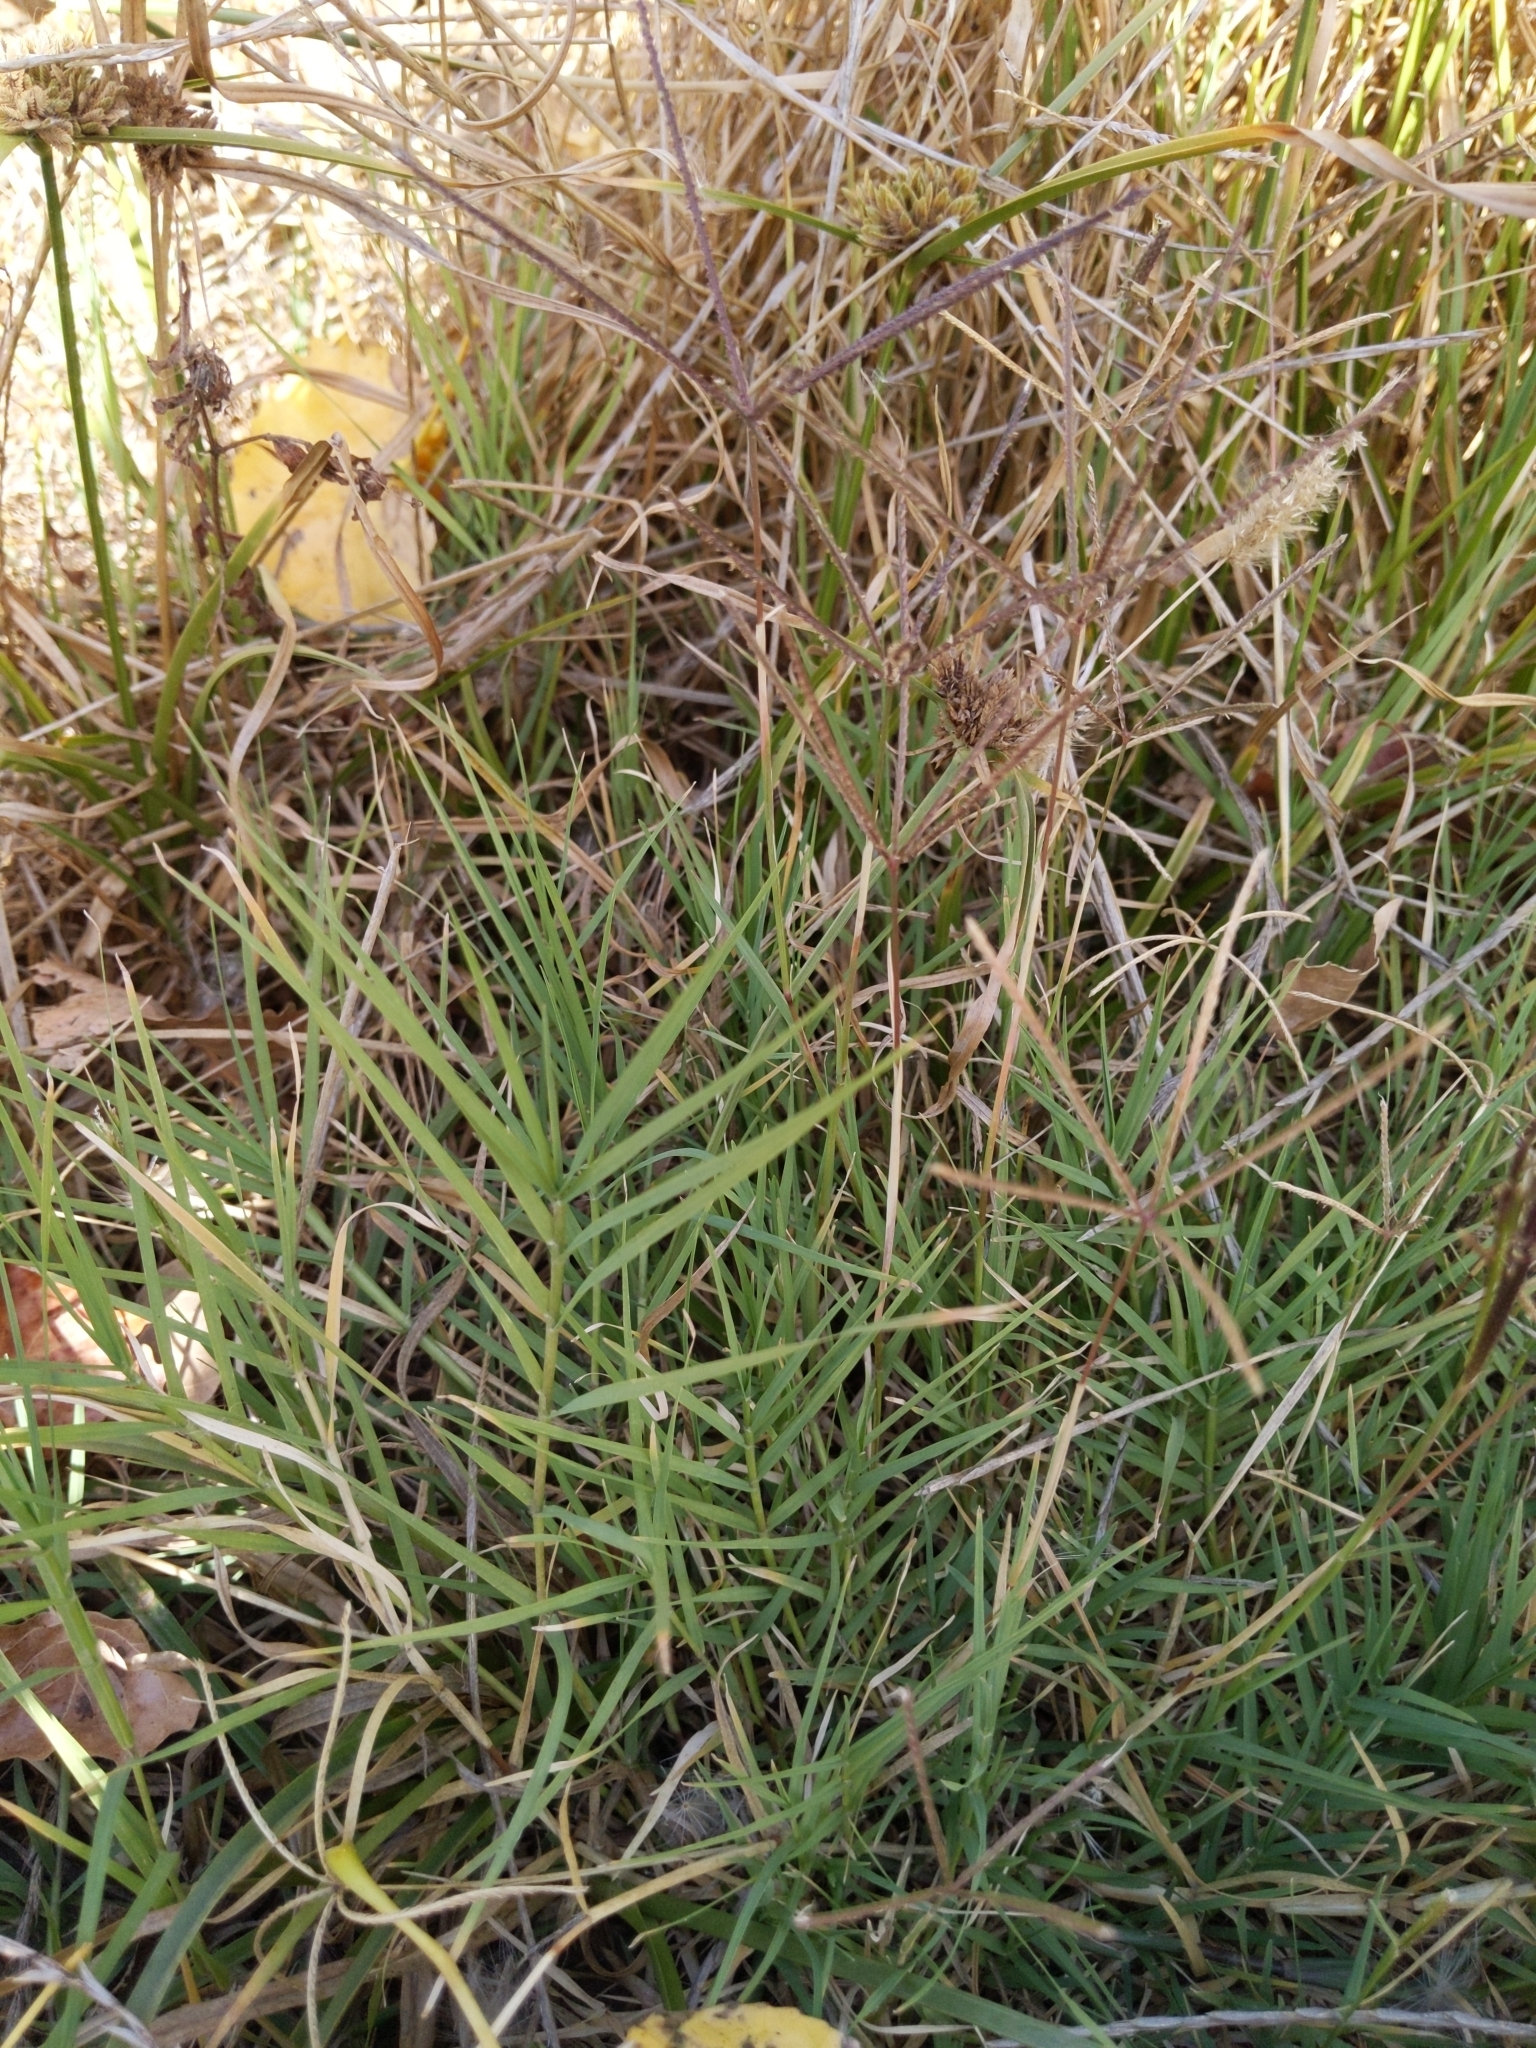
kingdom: Plantae
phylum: Tracheophyta
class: Liliopsida
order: Poales
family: Poaceae
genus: Cynodon
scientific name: Cynodon dactylon
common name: Bermuda grass
